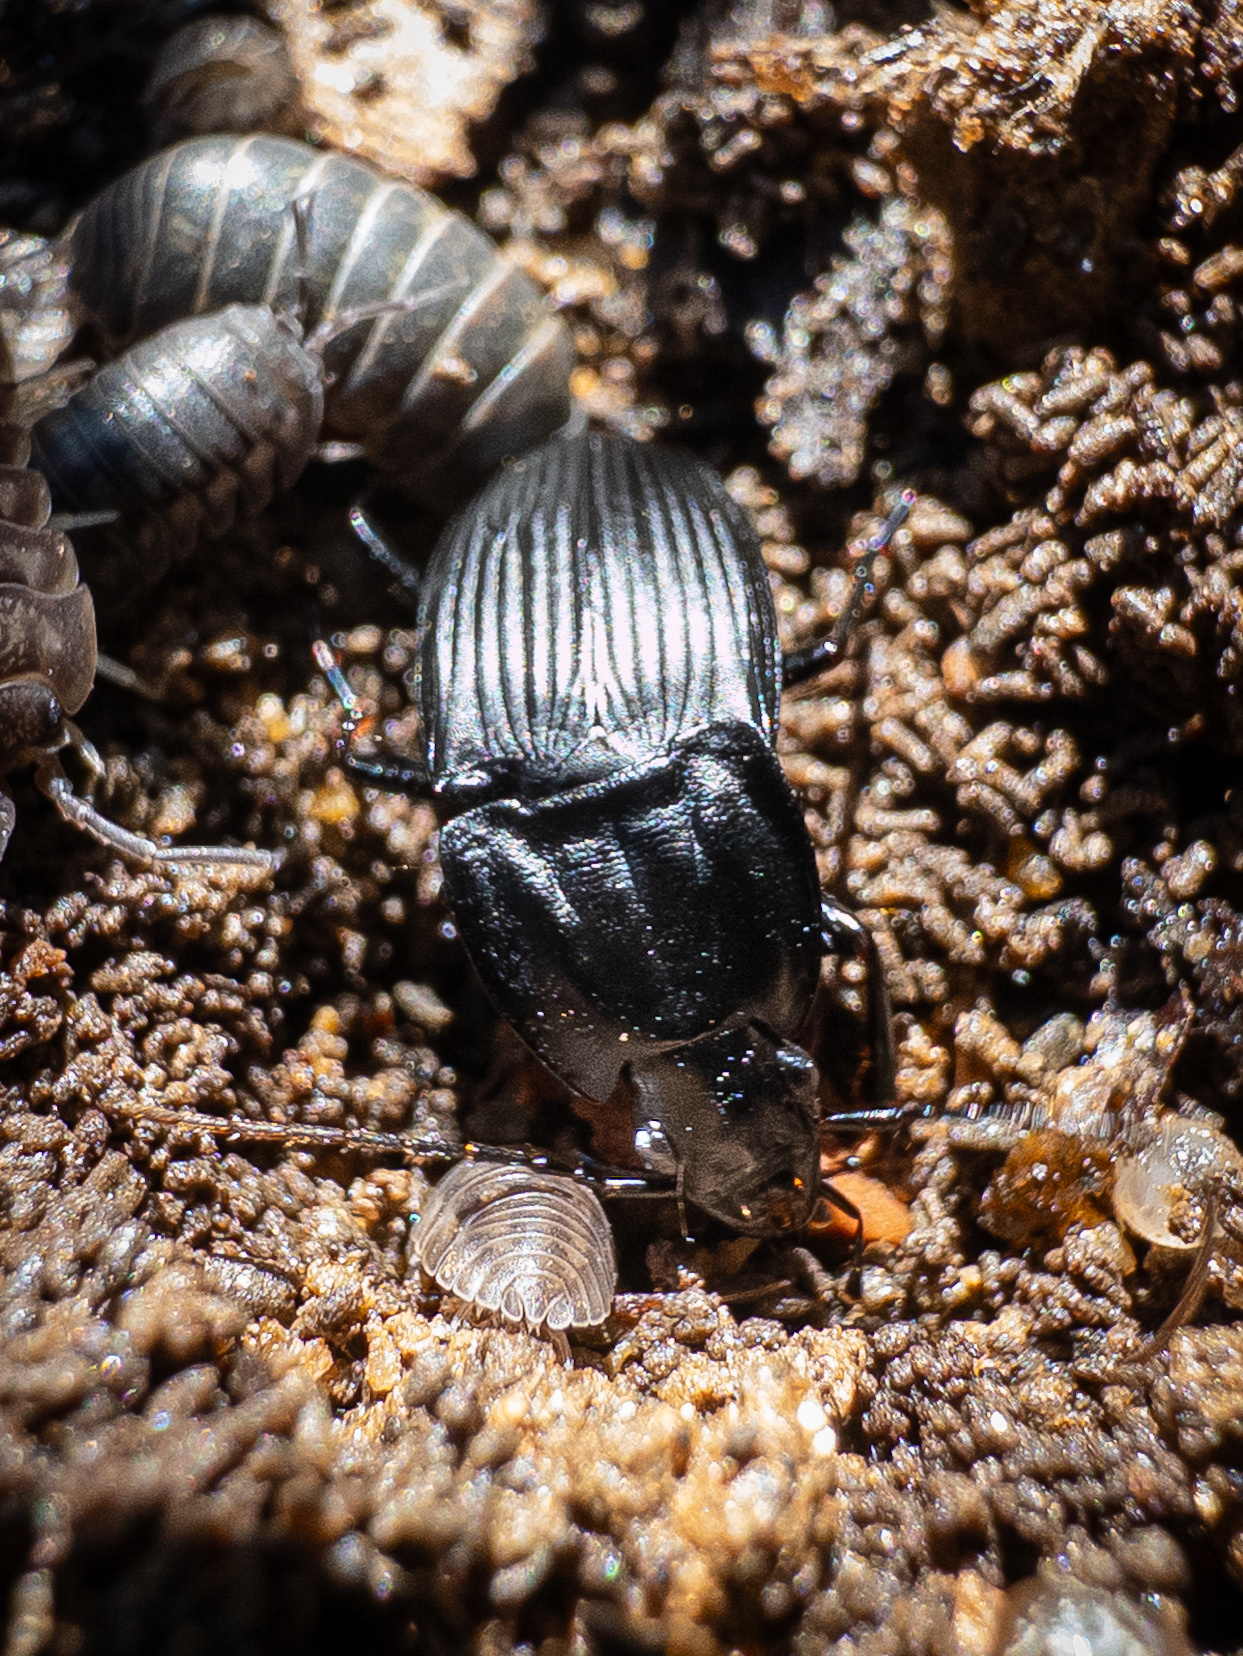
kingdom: Animalia
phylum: Arthropoda
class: Insecta
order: Coleoptera
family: Carabidae
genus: Dicaelus
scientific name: Dicaelus dilatatus
